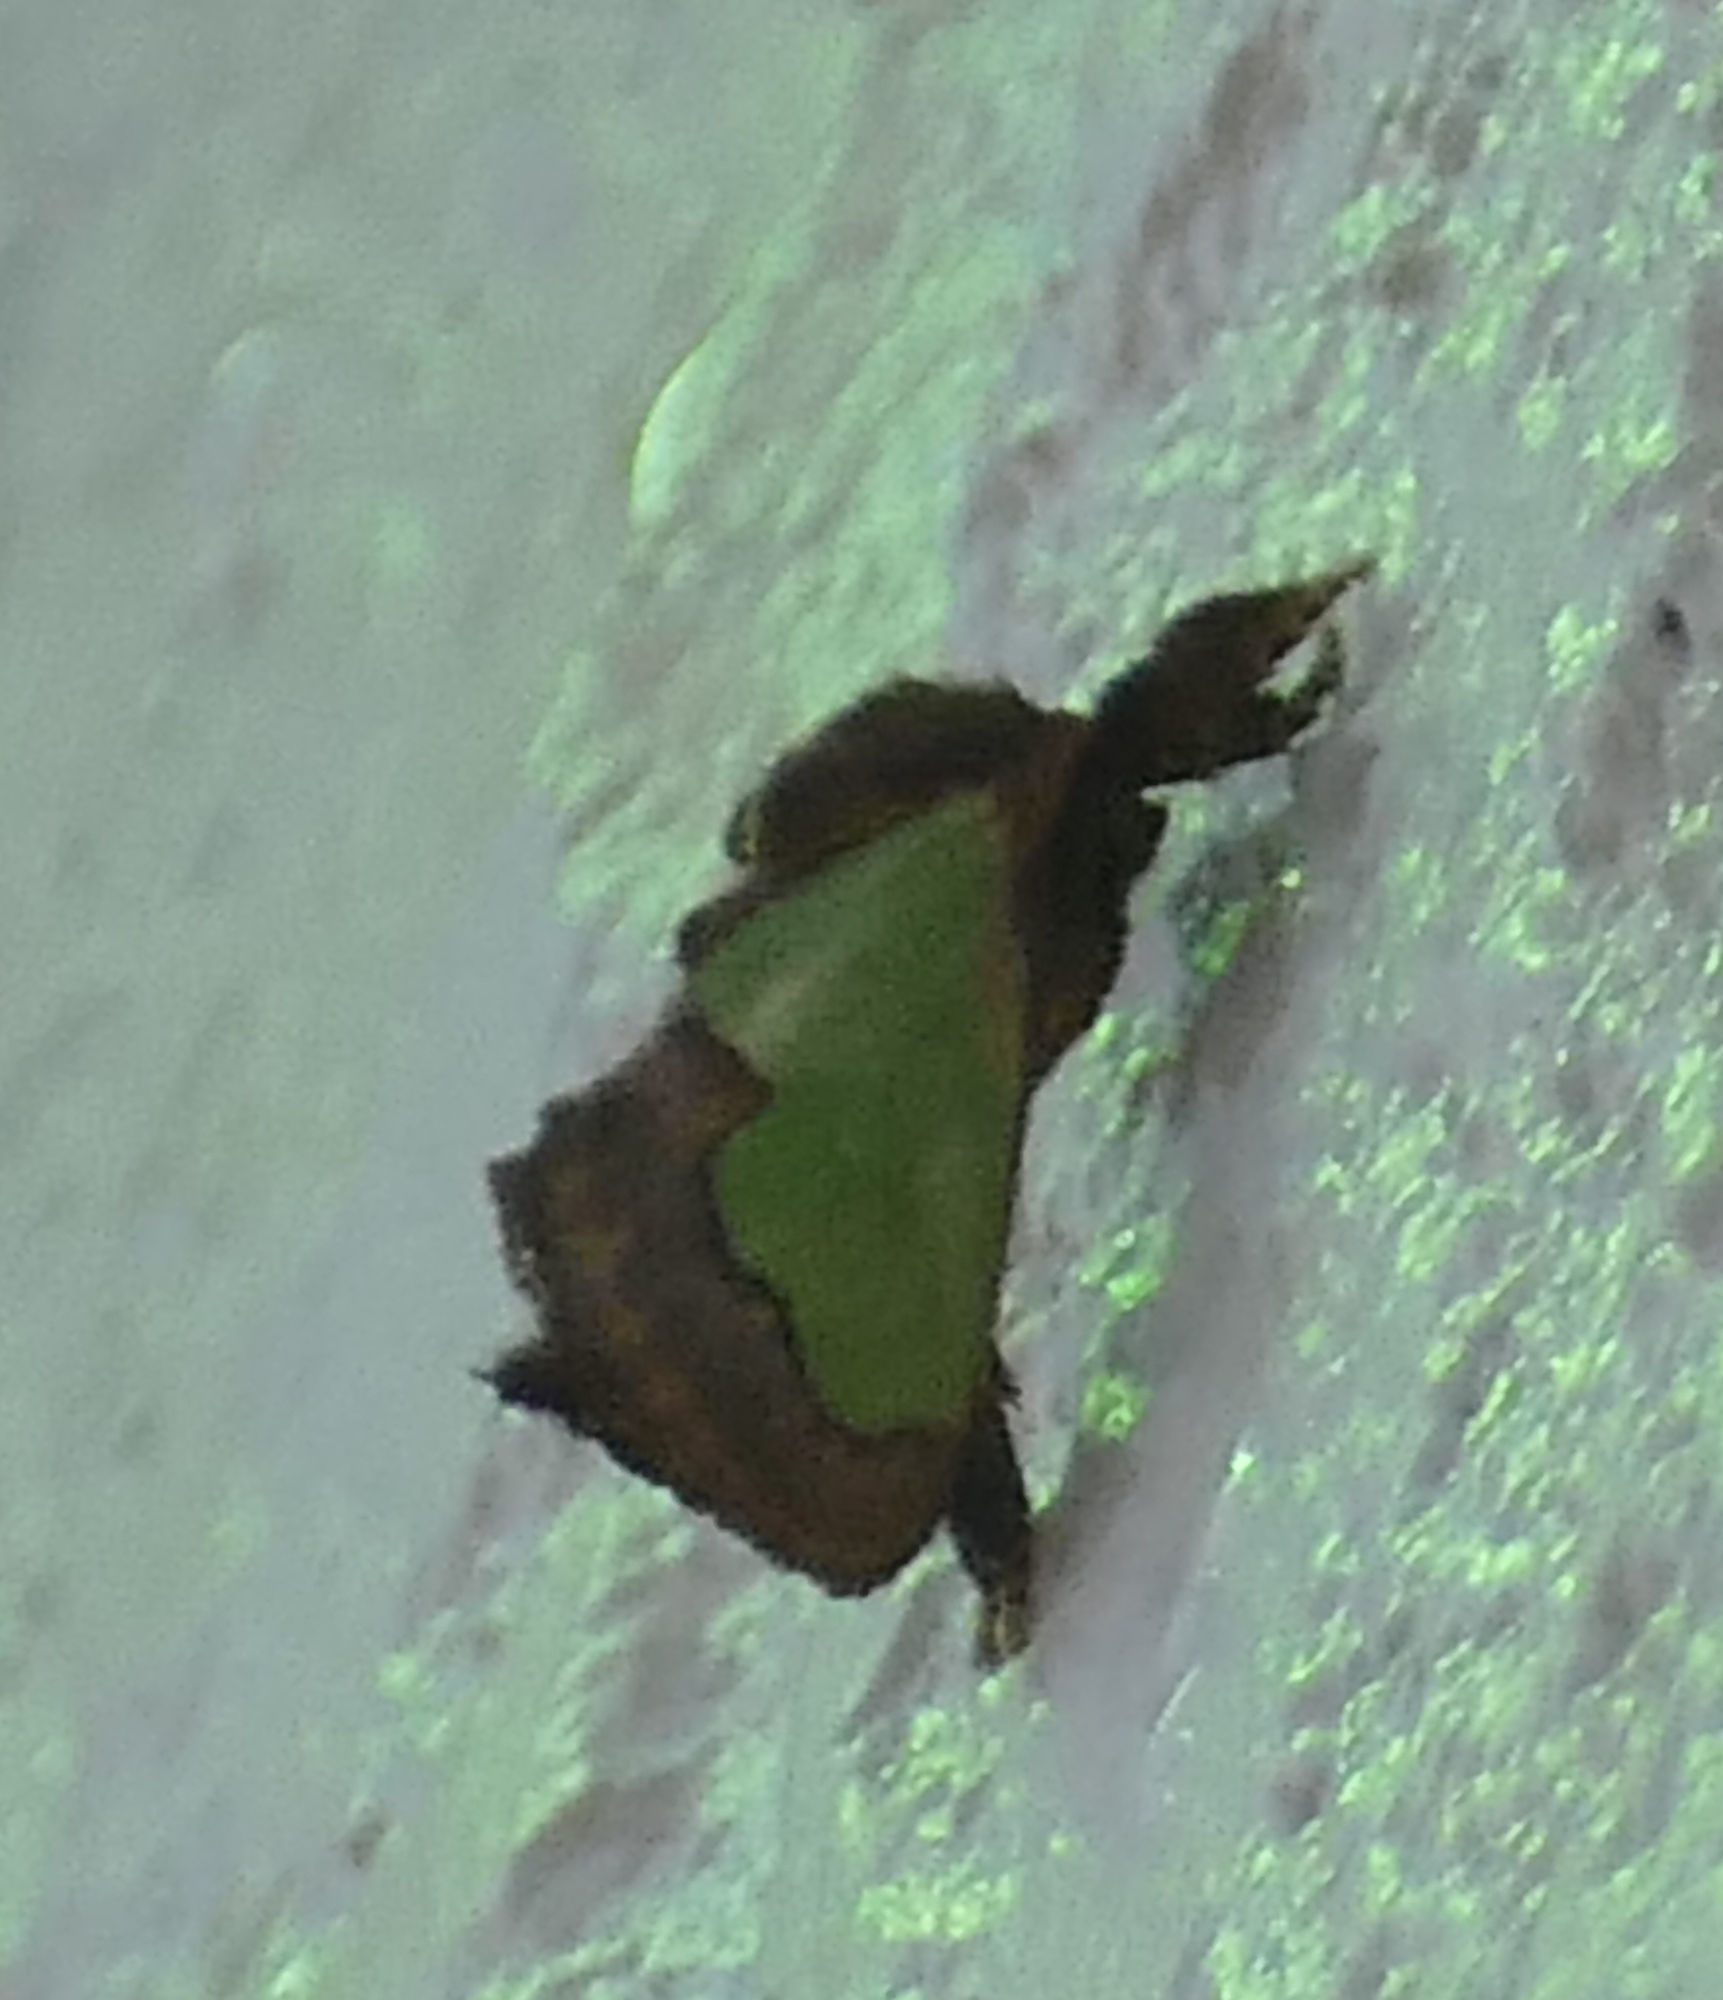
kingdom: Animalia
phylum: Arthropoda
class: Insecta
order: Lepidoptera
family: Limacodidae
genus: Euclea
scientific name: Euclea incisa
